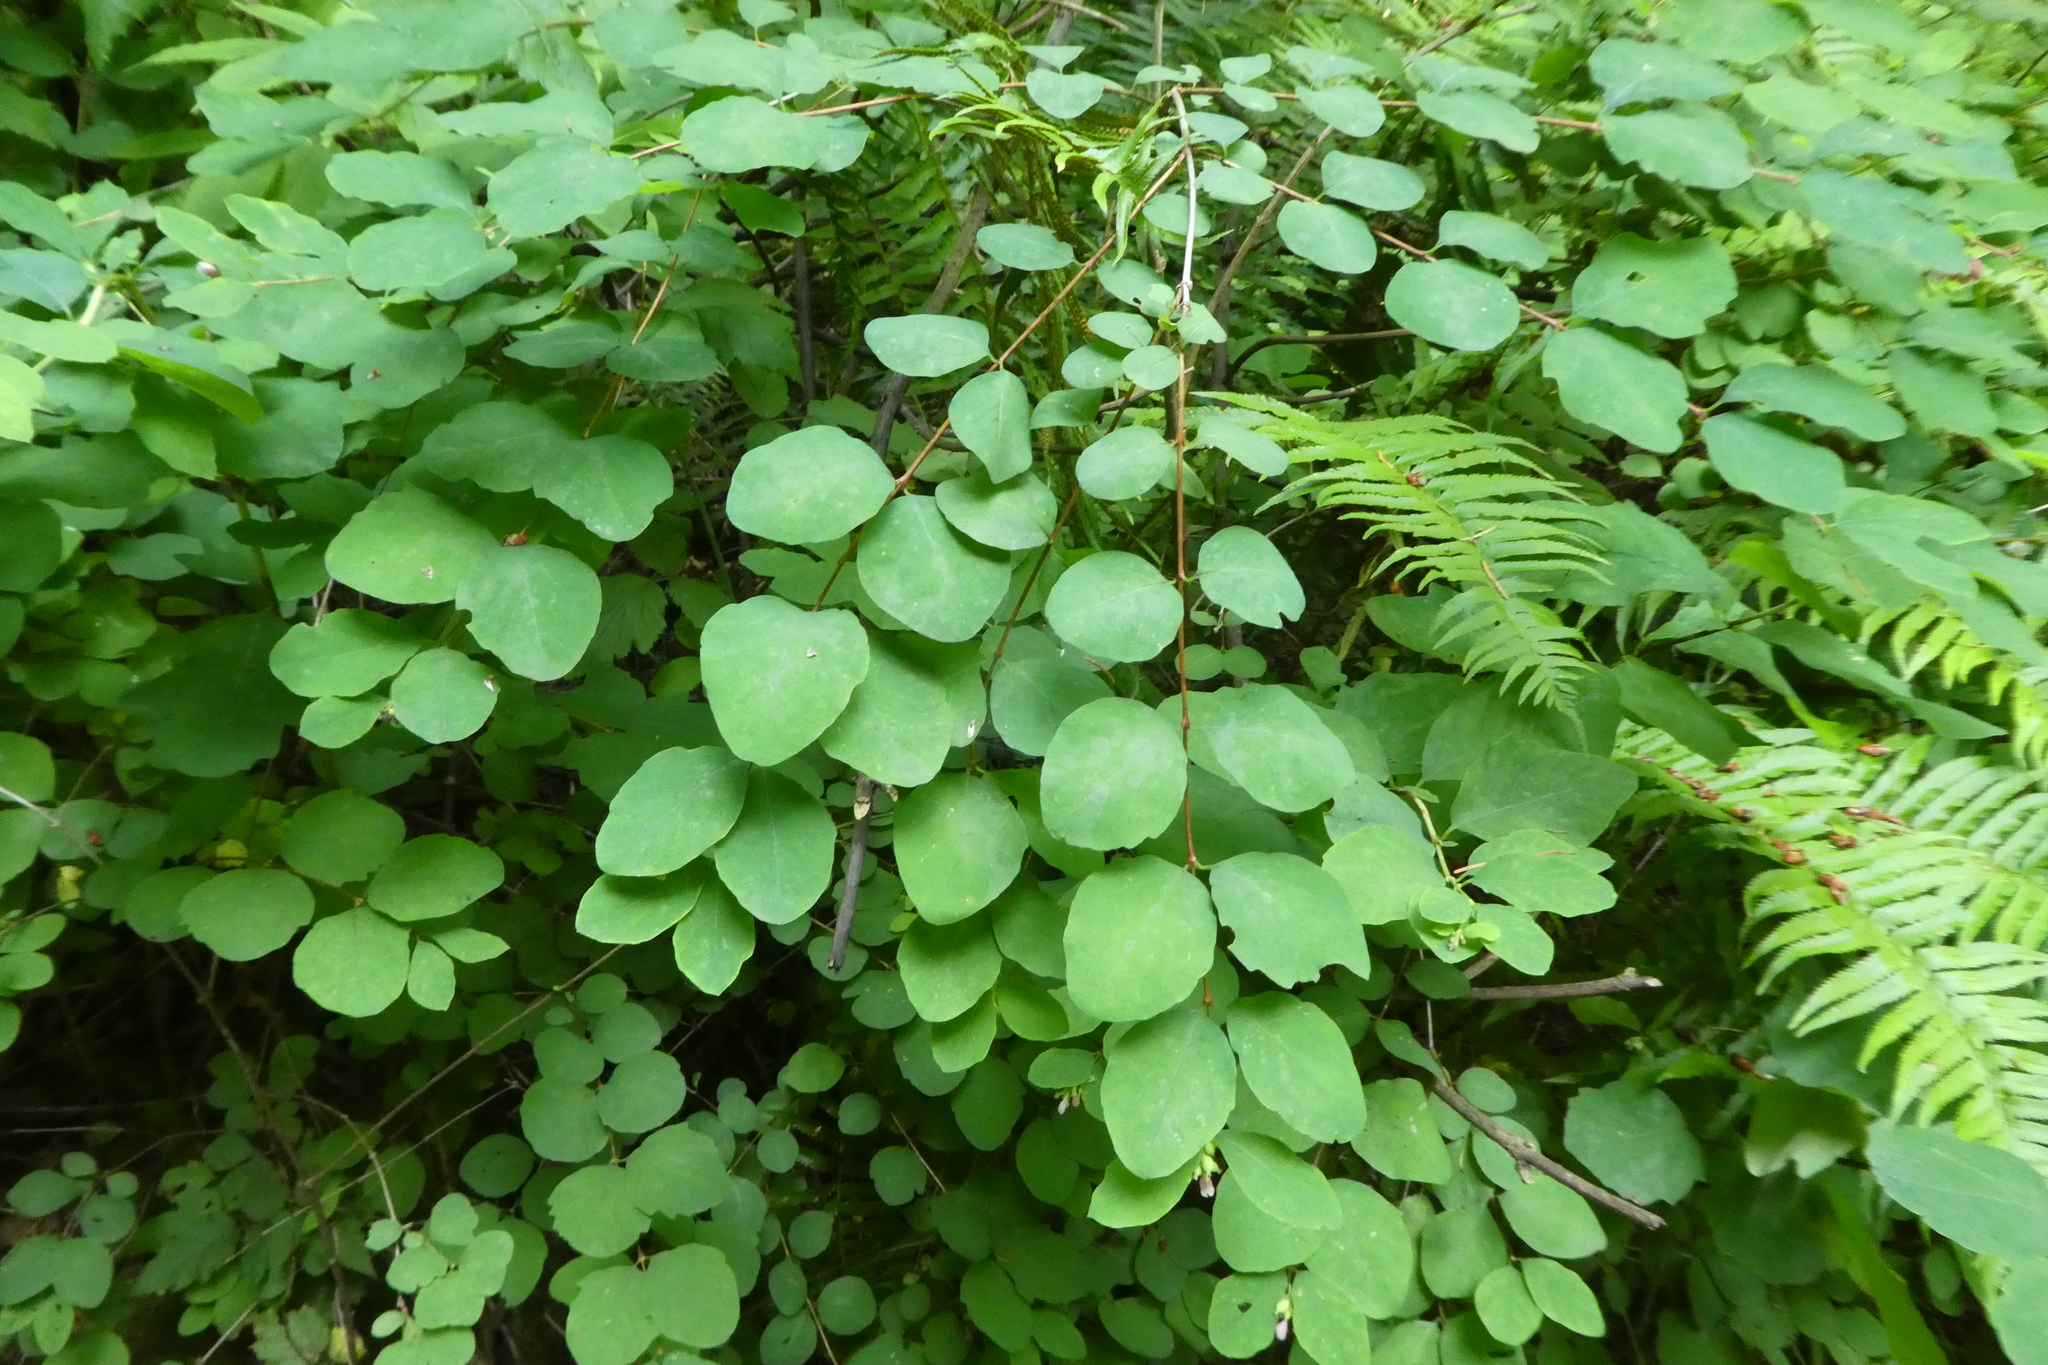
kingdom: Plantae
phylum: Tracheophyta
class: Magnoliopsida
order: Dipsacales
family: Caprifoliaceae
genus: Symphoricarpos
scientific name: Symphoricarpos albus
